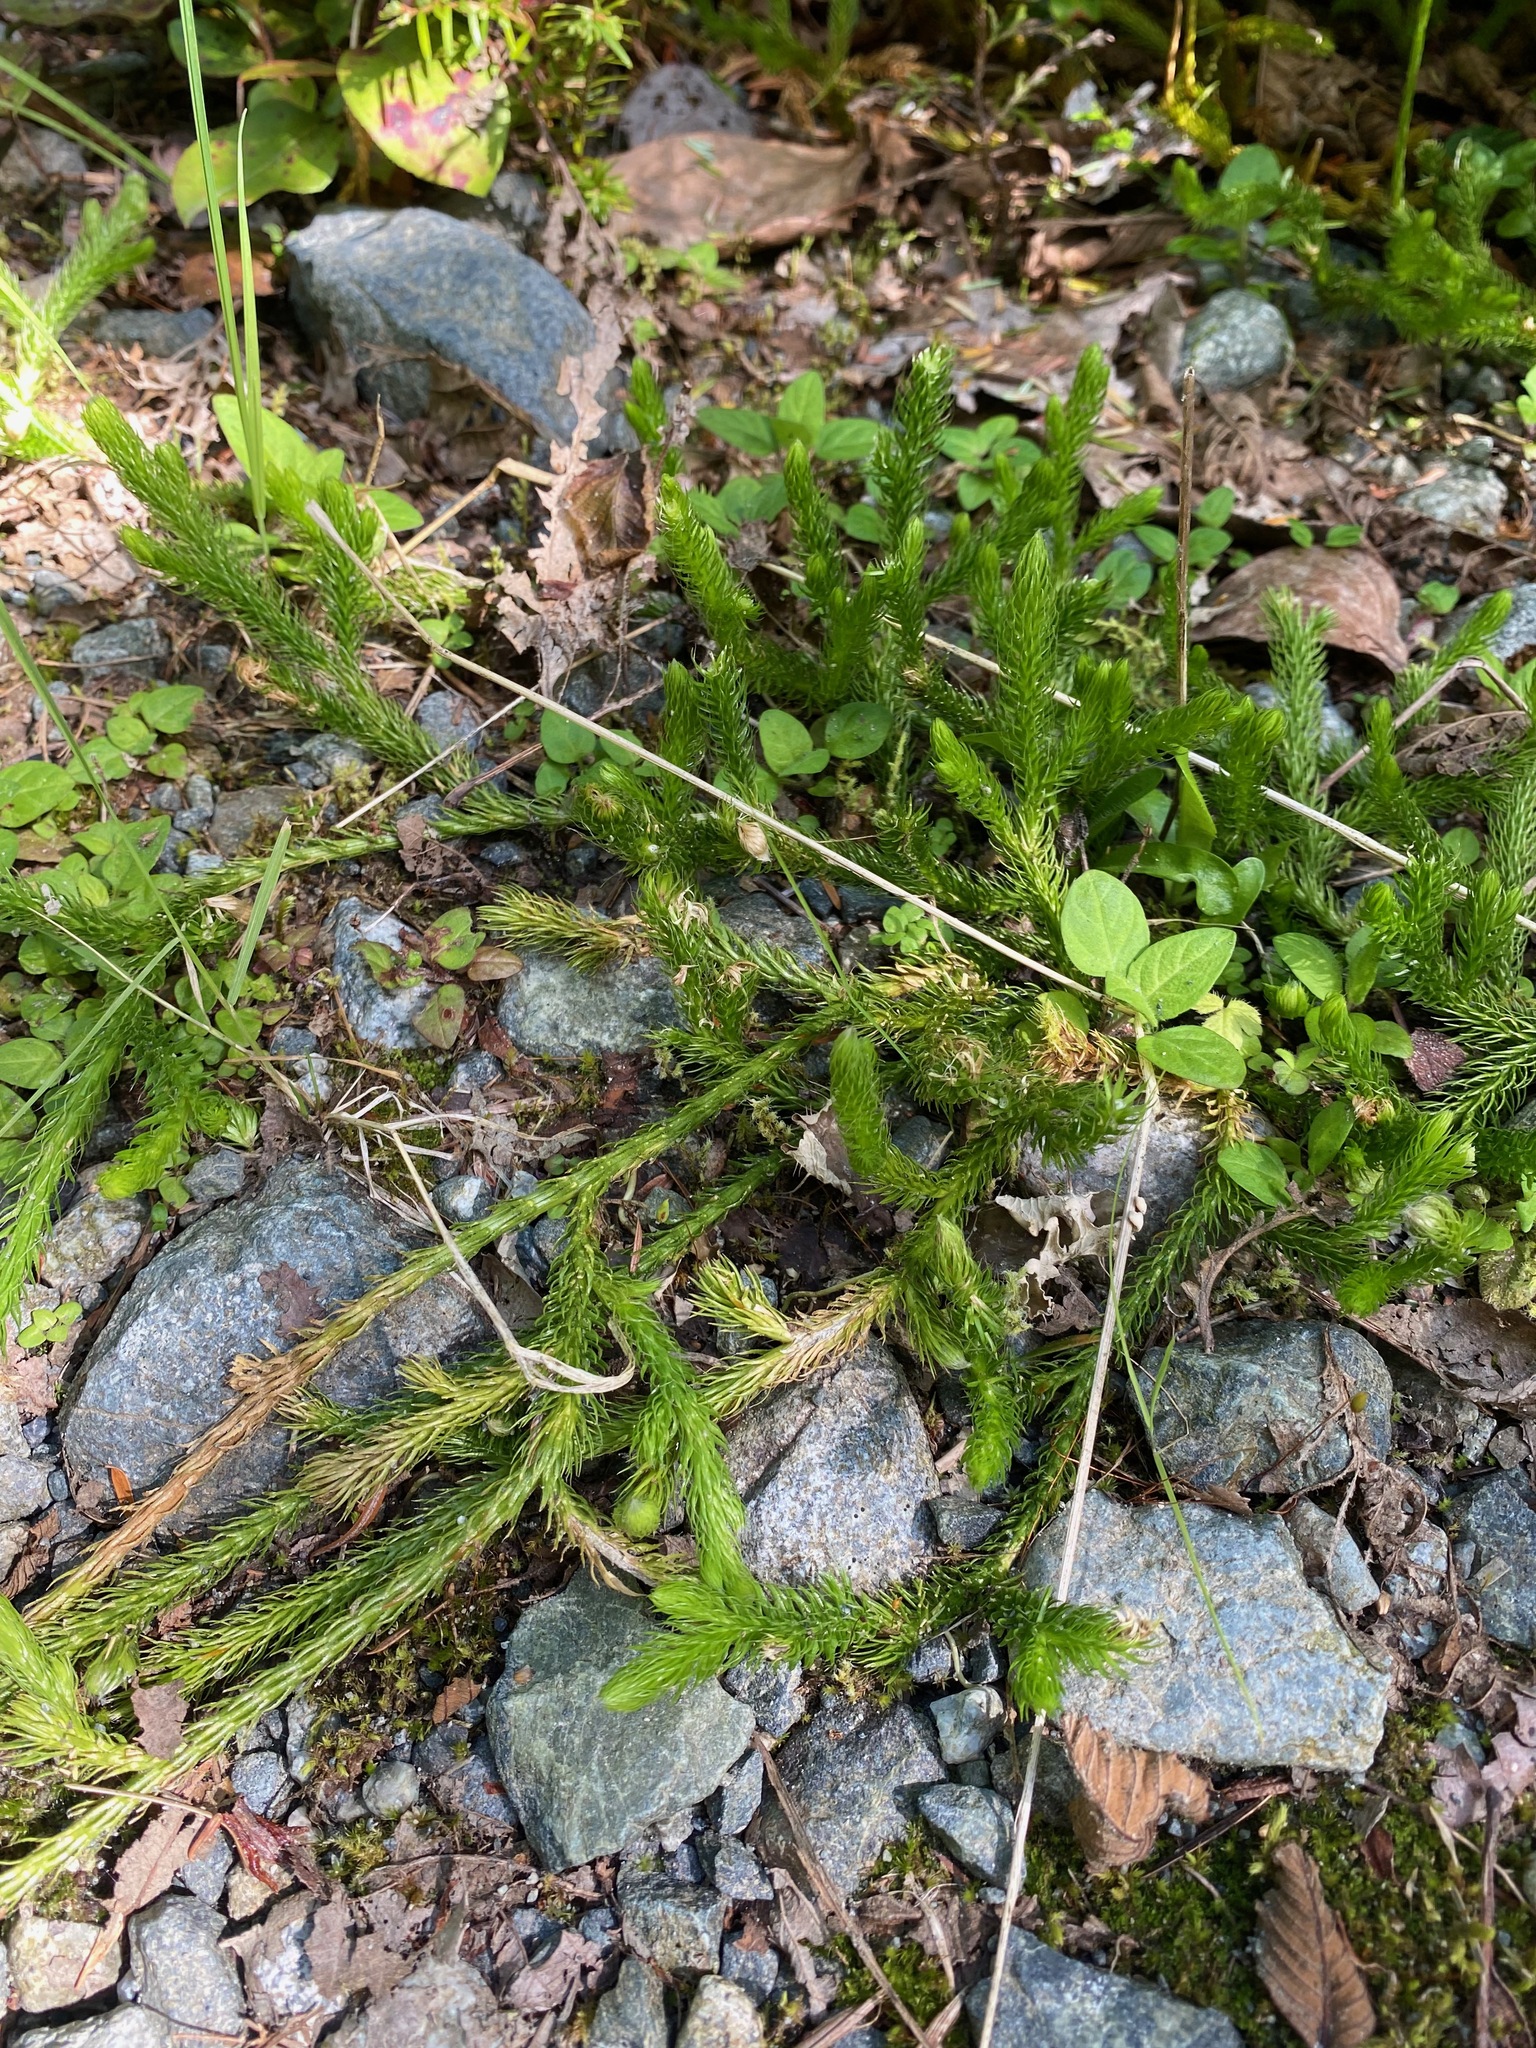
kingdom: Plantae
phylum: Tracheophyta
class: Lycopodiopsida
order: Lycopodiales
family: Lycopodiaceae
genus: Lycopodium
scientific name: Lycopodium clavatum
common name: Stag's-horn clubmoss
